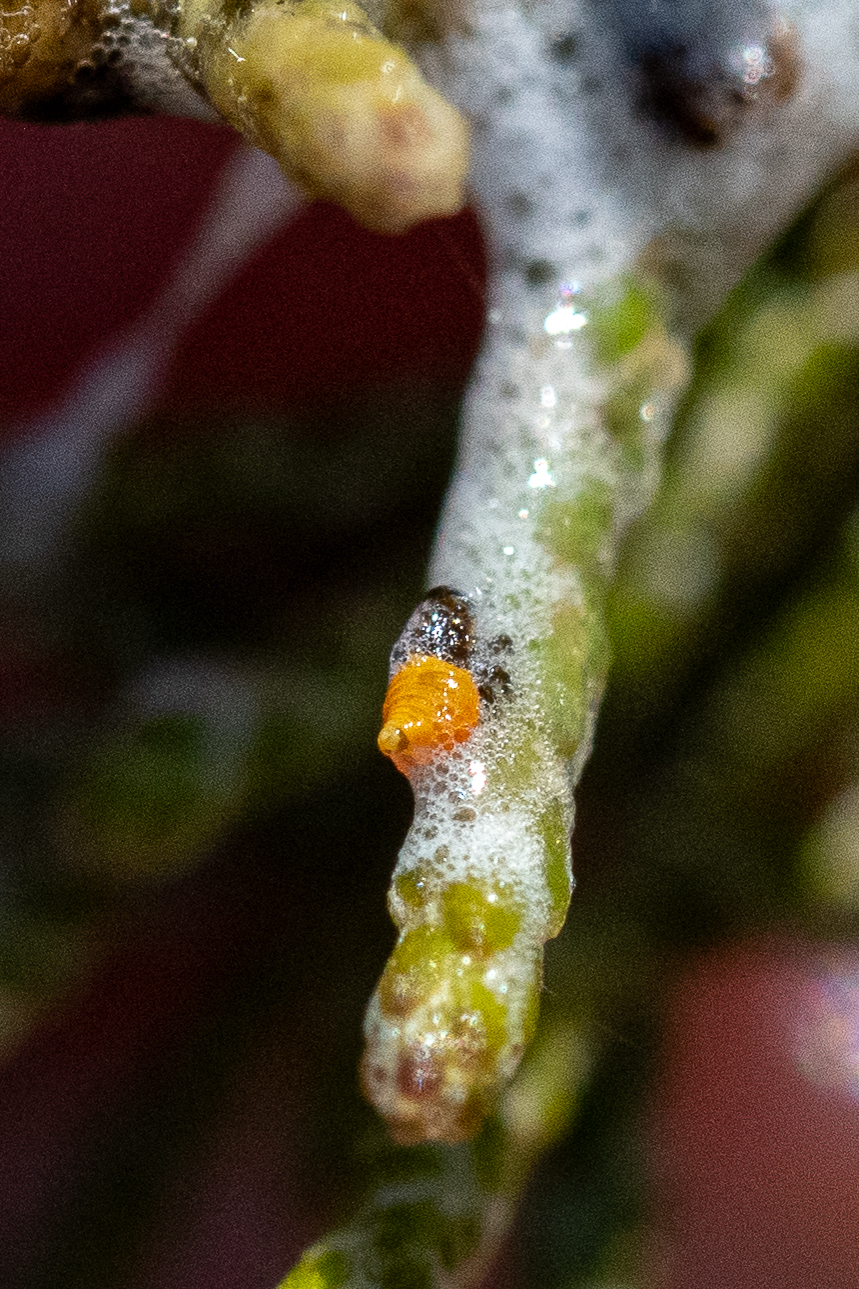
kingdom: Animalia
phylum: Arthropoda
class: Insecta
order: Hemiptera
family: Aphrophoridae
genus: Tremapterus
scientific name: Tremapterus
